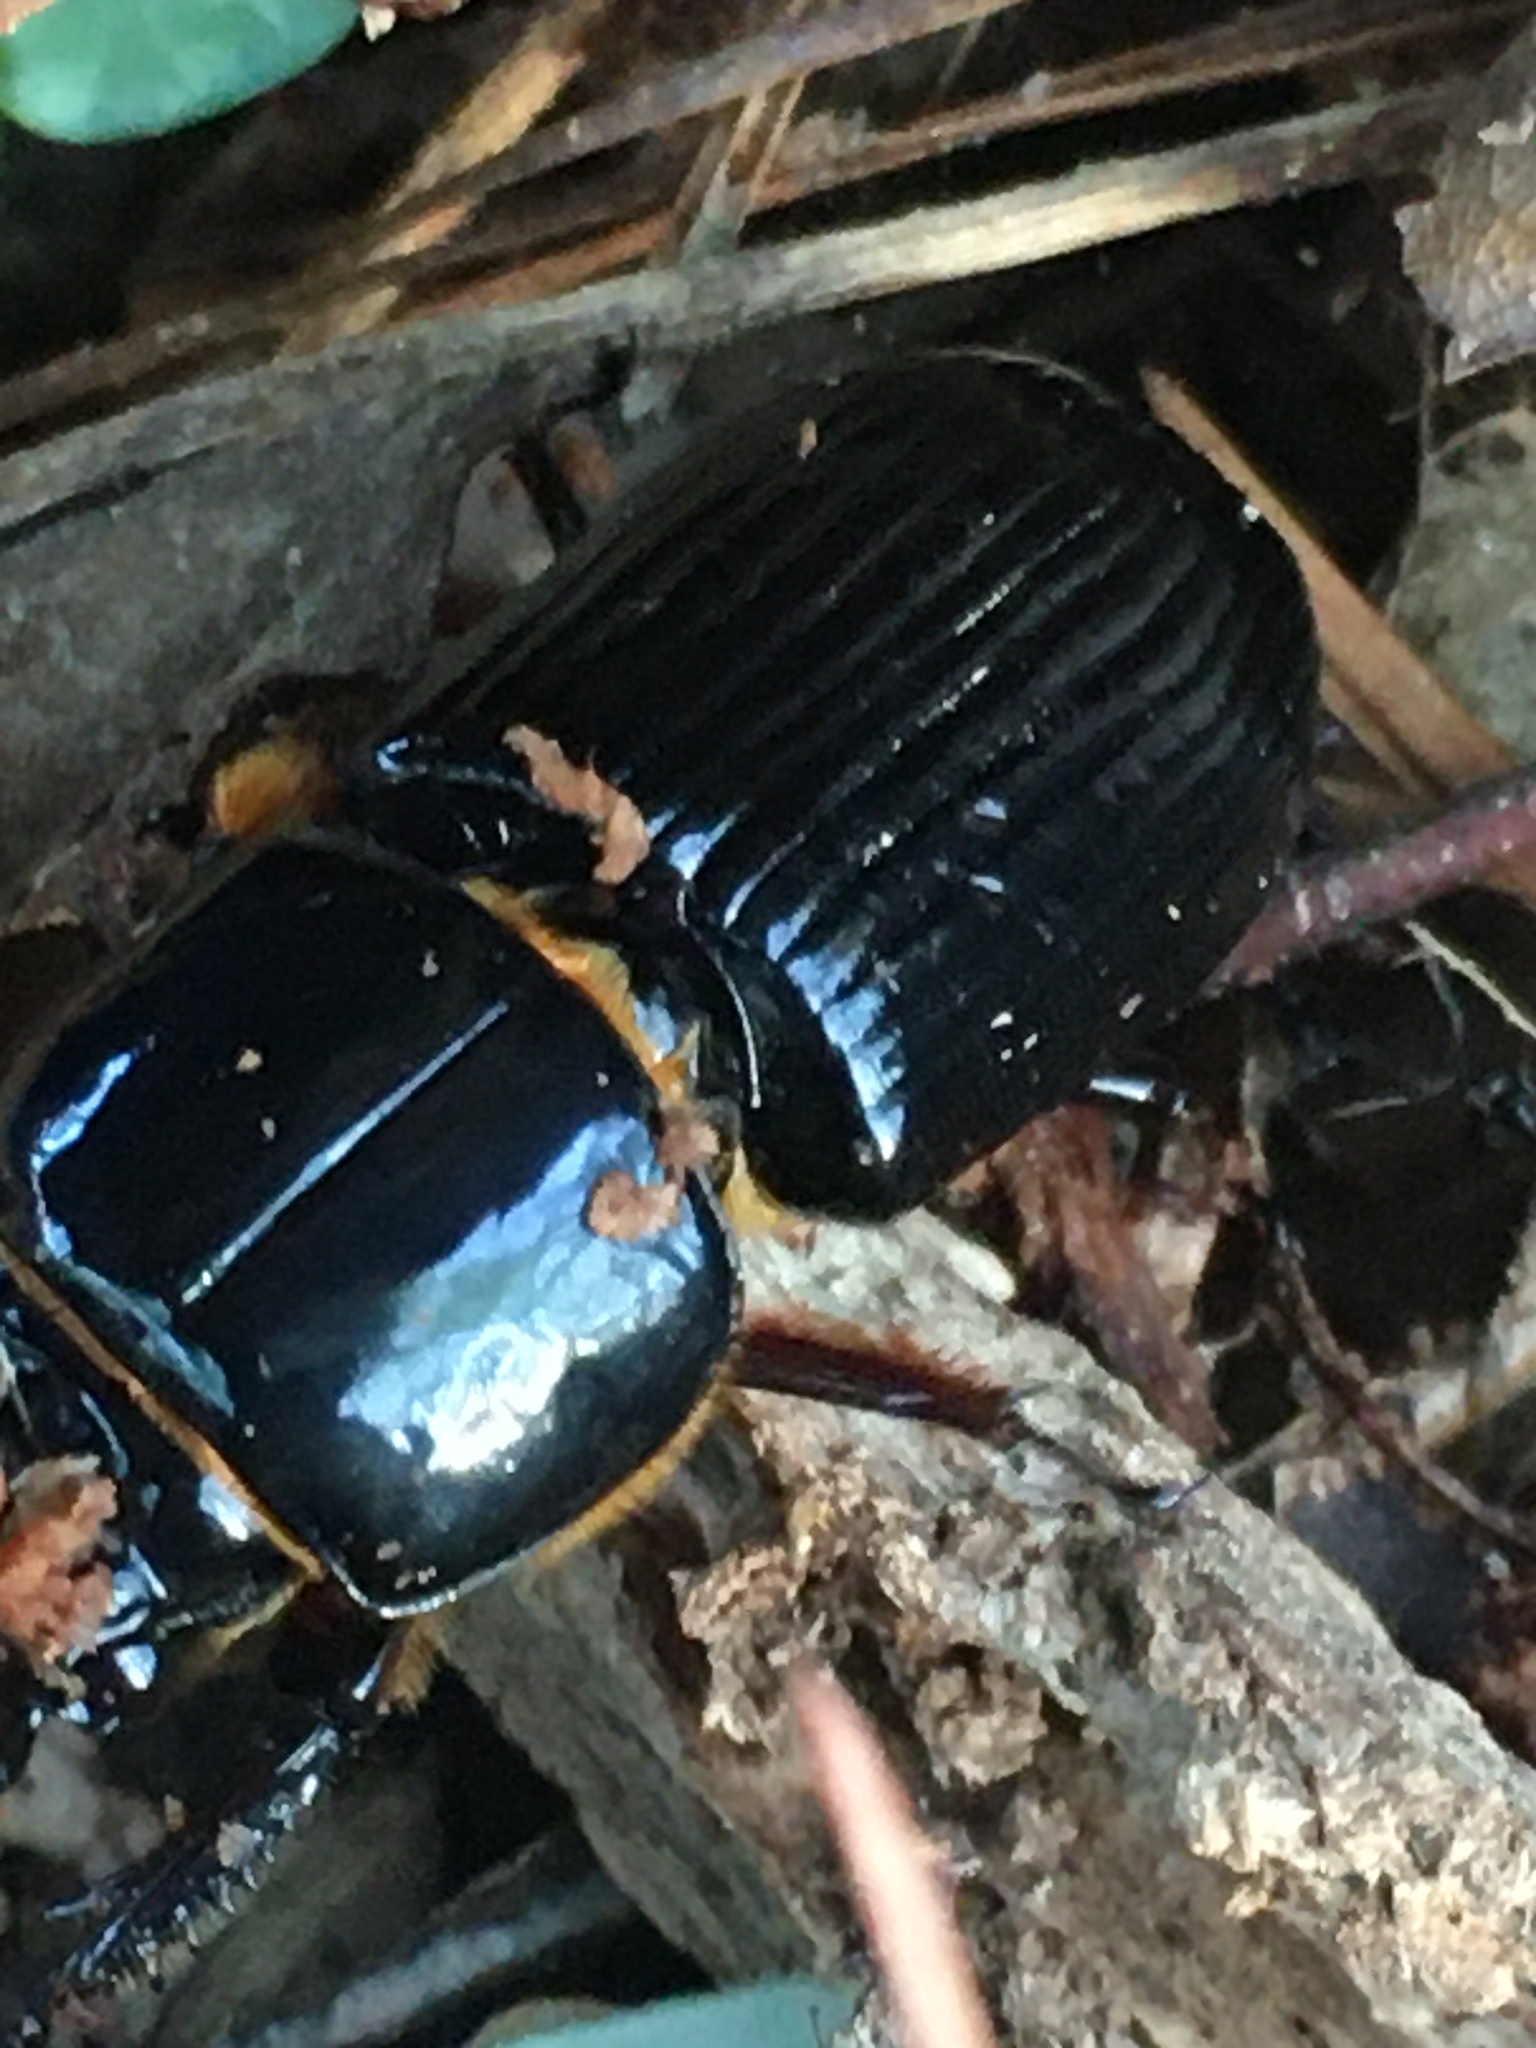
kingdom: Animalia
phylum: Arthropoda
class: Insecta
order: Coleoptera
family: Passalidae
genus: Odontotaenius
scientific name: Odontotaenius disjunctus
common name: Patent leather beetle
